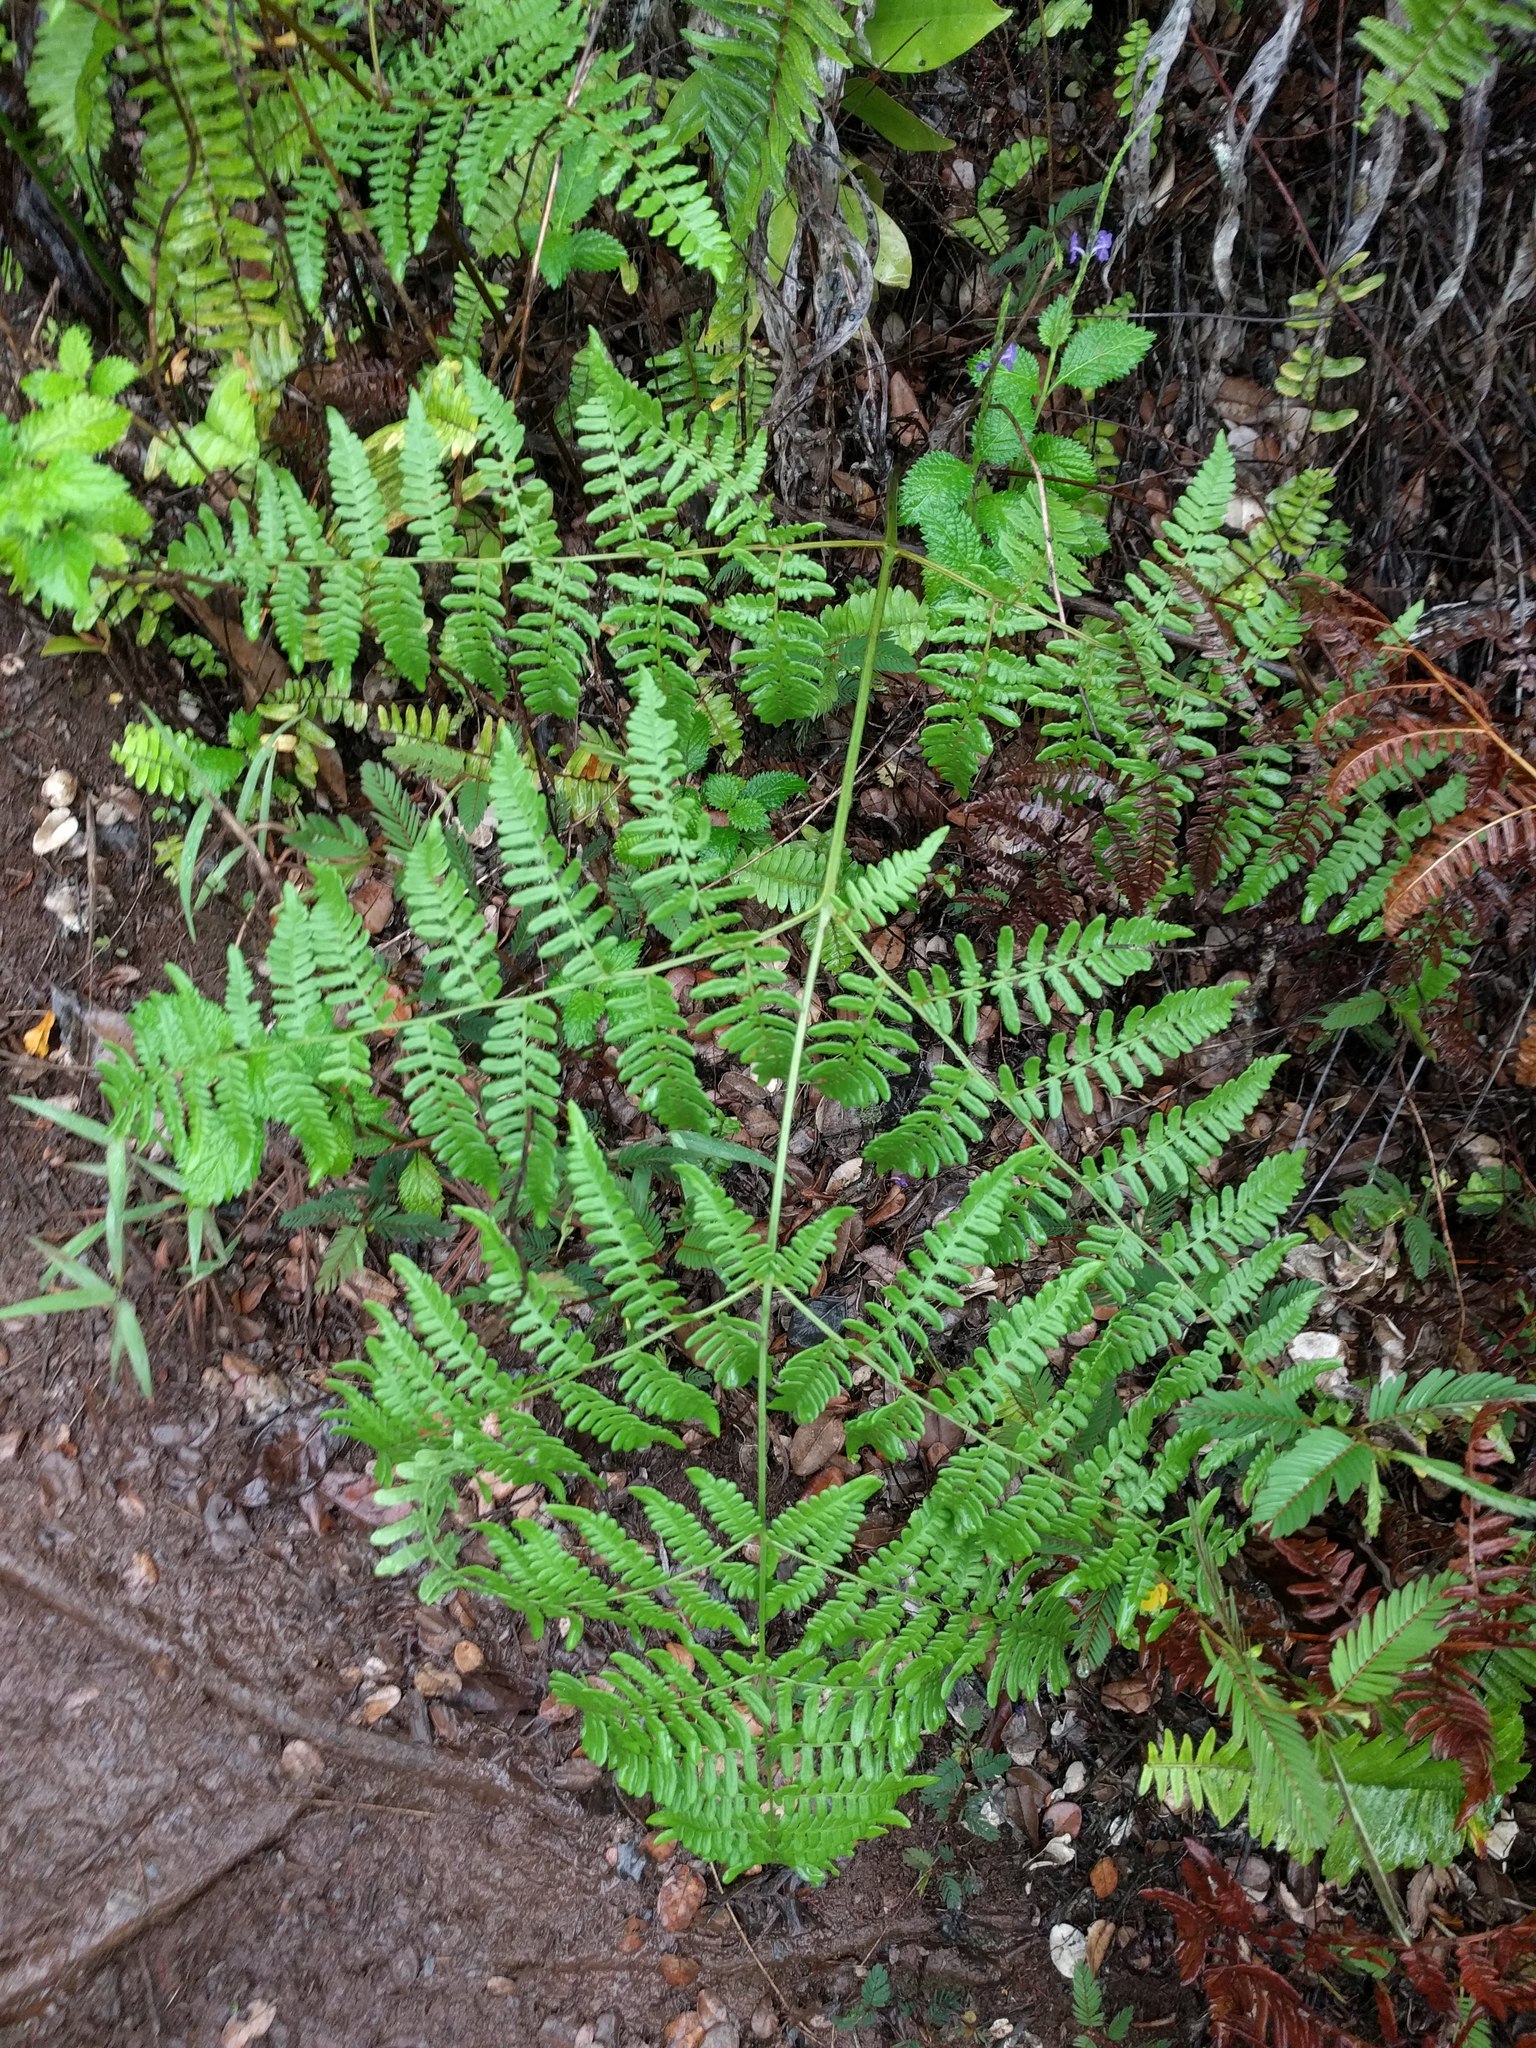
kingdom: Plantae
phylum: Tracheophyta
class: Polypodiopsida
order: Polypodiales
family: Dennstaedtiaceae
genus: Pteridium
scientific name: Pteridium aquilinum
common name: Bracken
